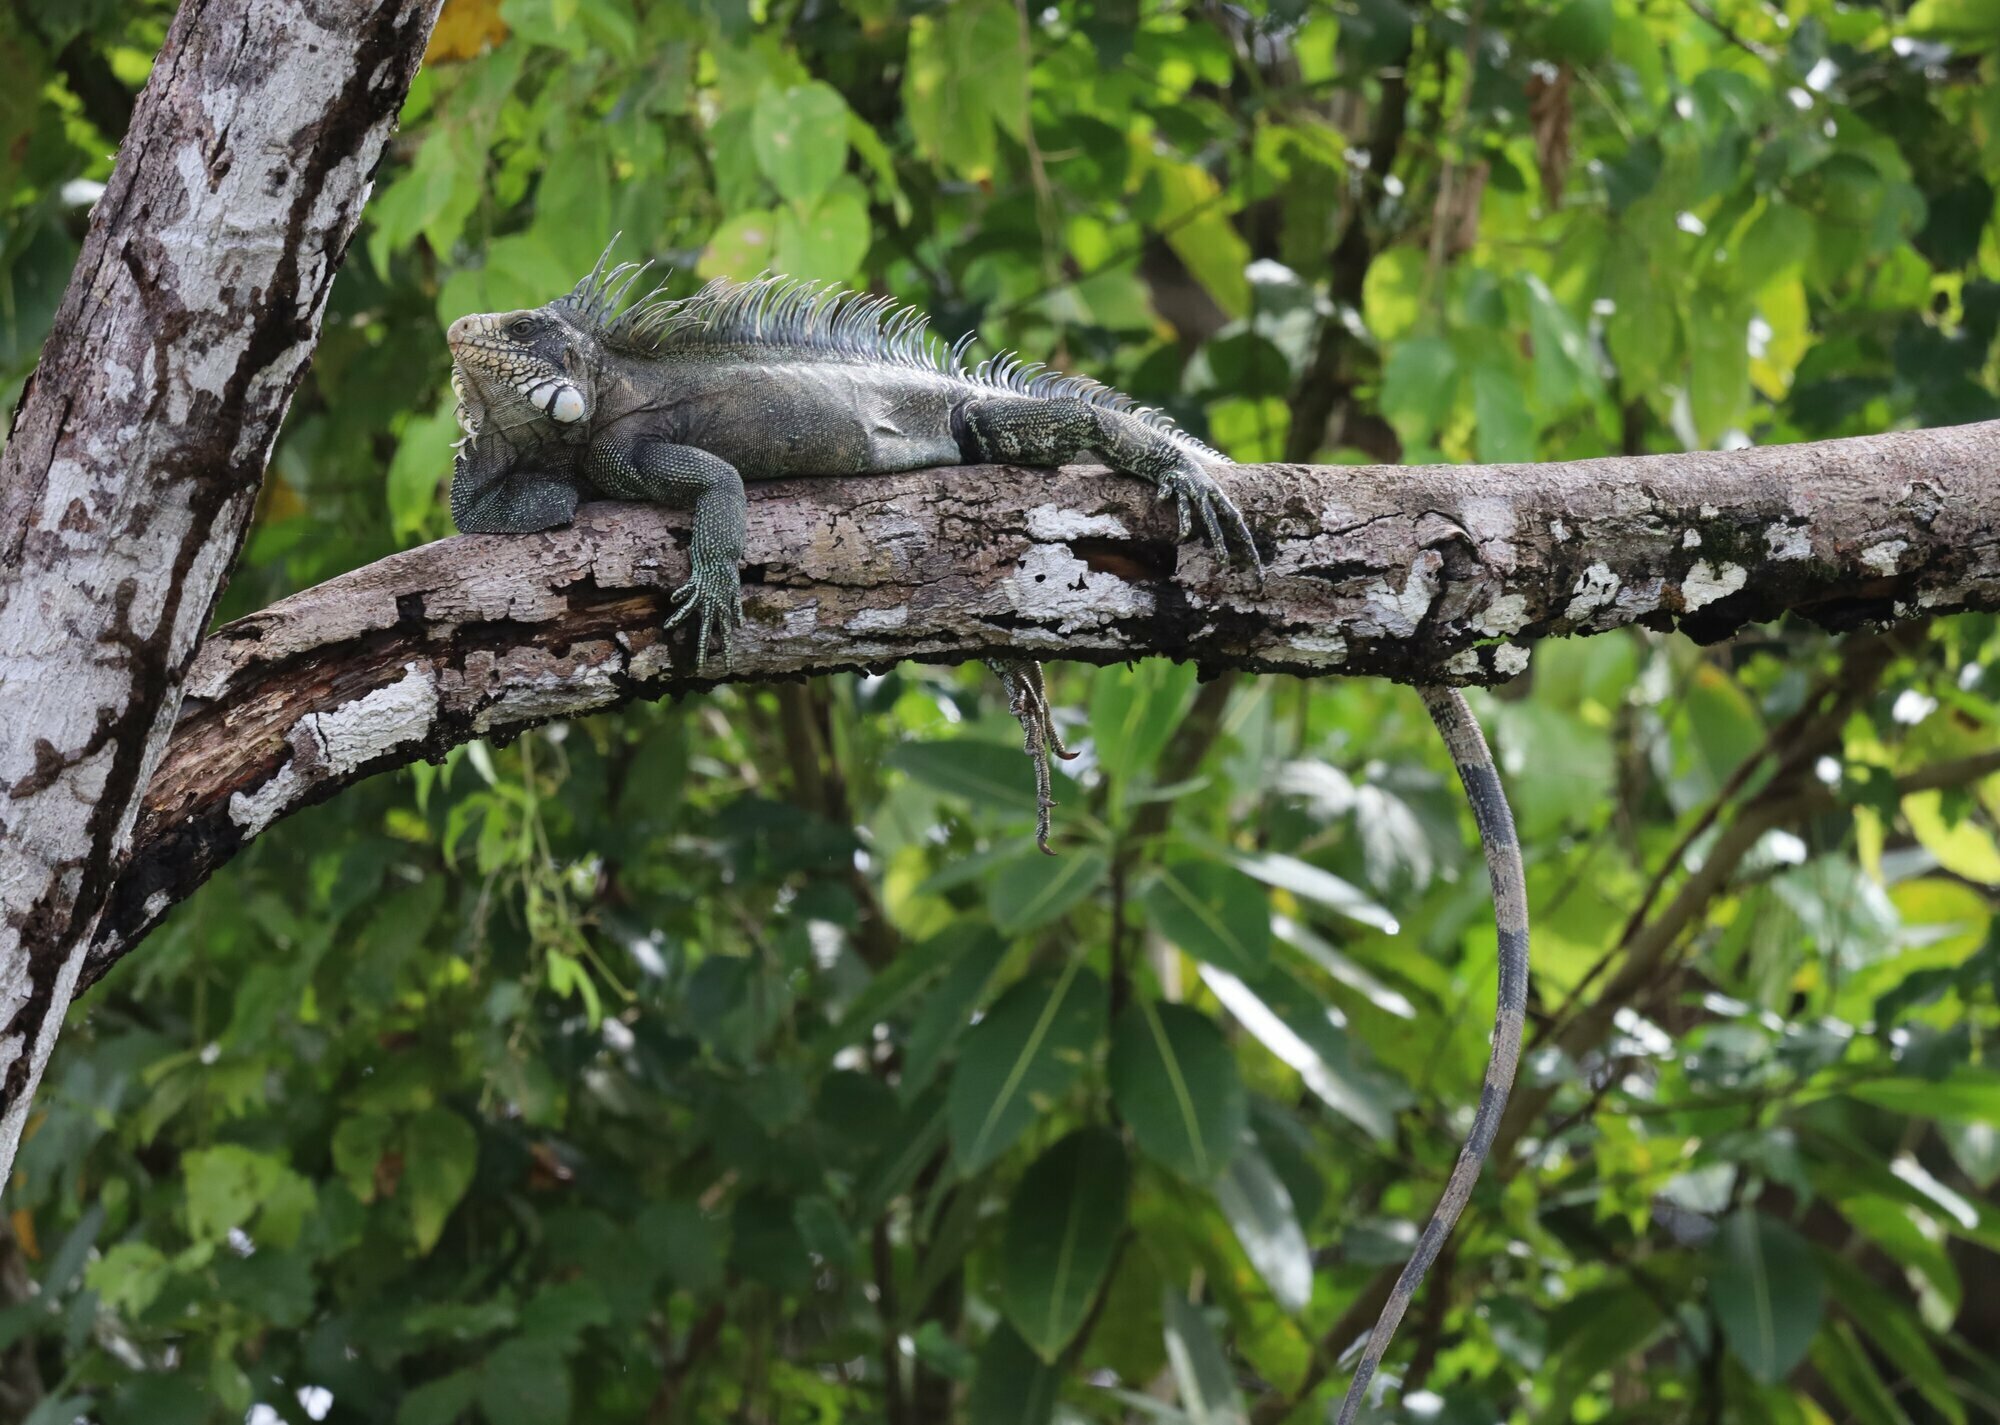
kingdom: Animalia
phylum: Chordata
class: Squamata
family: Iguanidae
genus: Iguana
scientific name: Iguana iguana
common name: Green iguana
